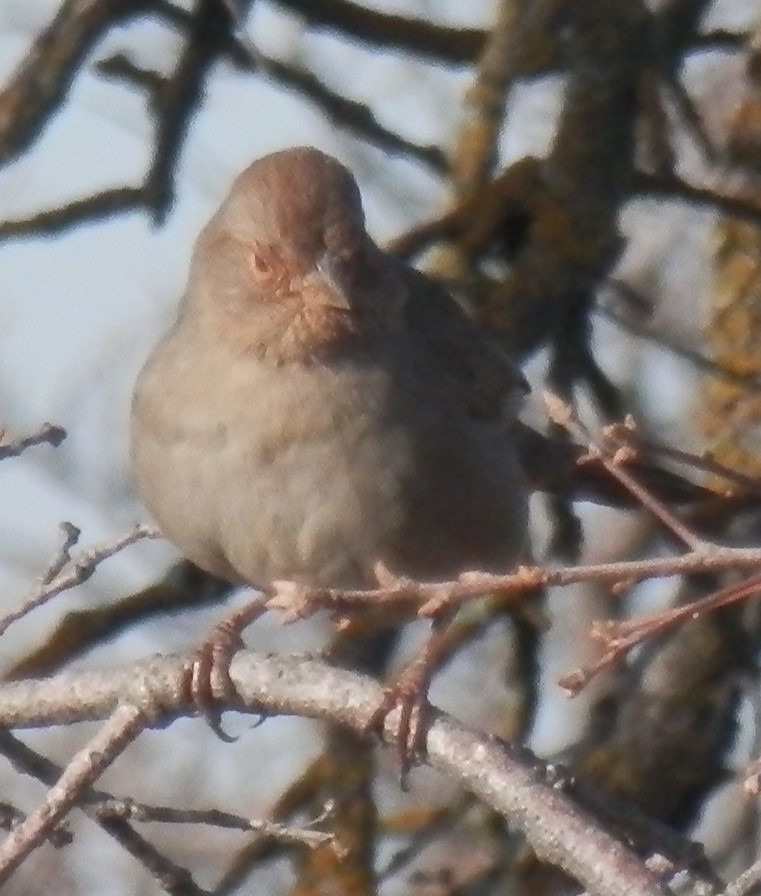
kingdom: Animalia
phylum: Chordata
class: Aves
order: Passeriformes
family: Passerellidae
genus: Melozone
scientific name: Melozone crissalis
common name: California towhee
